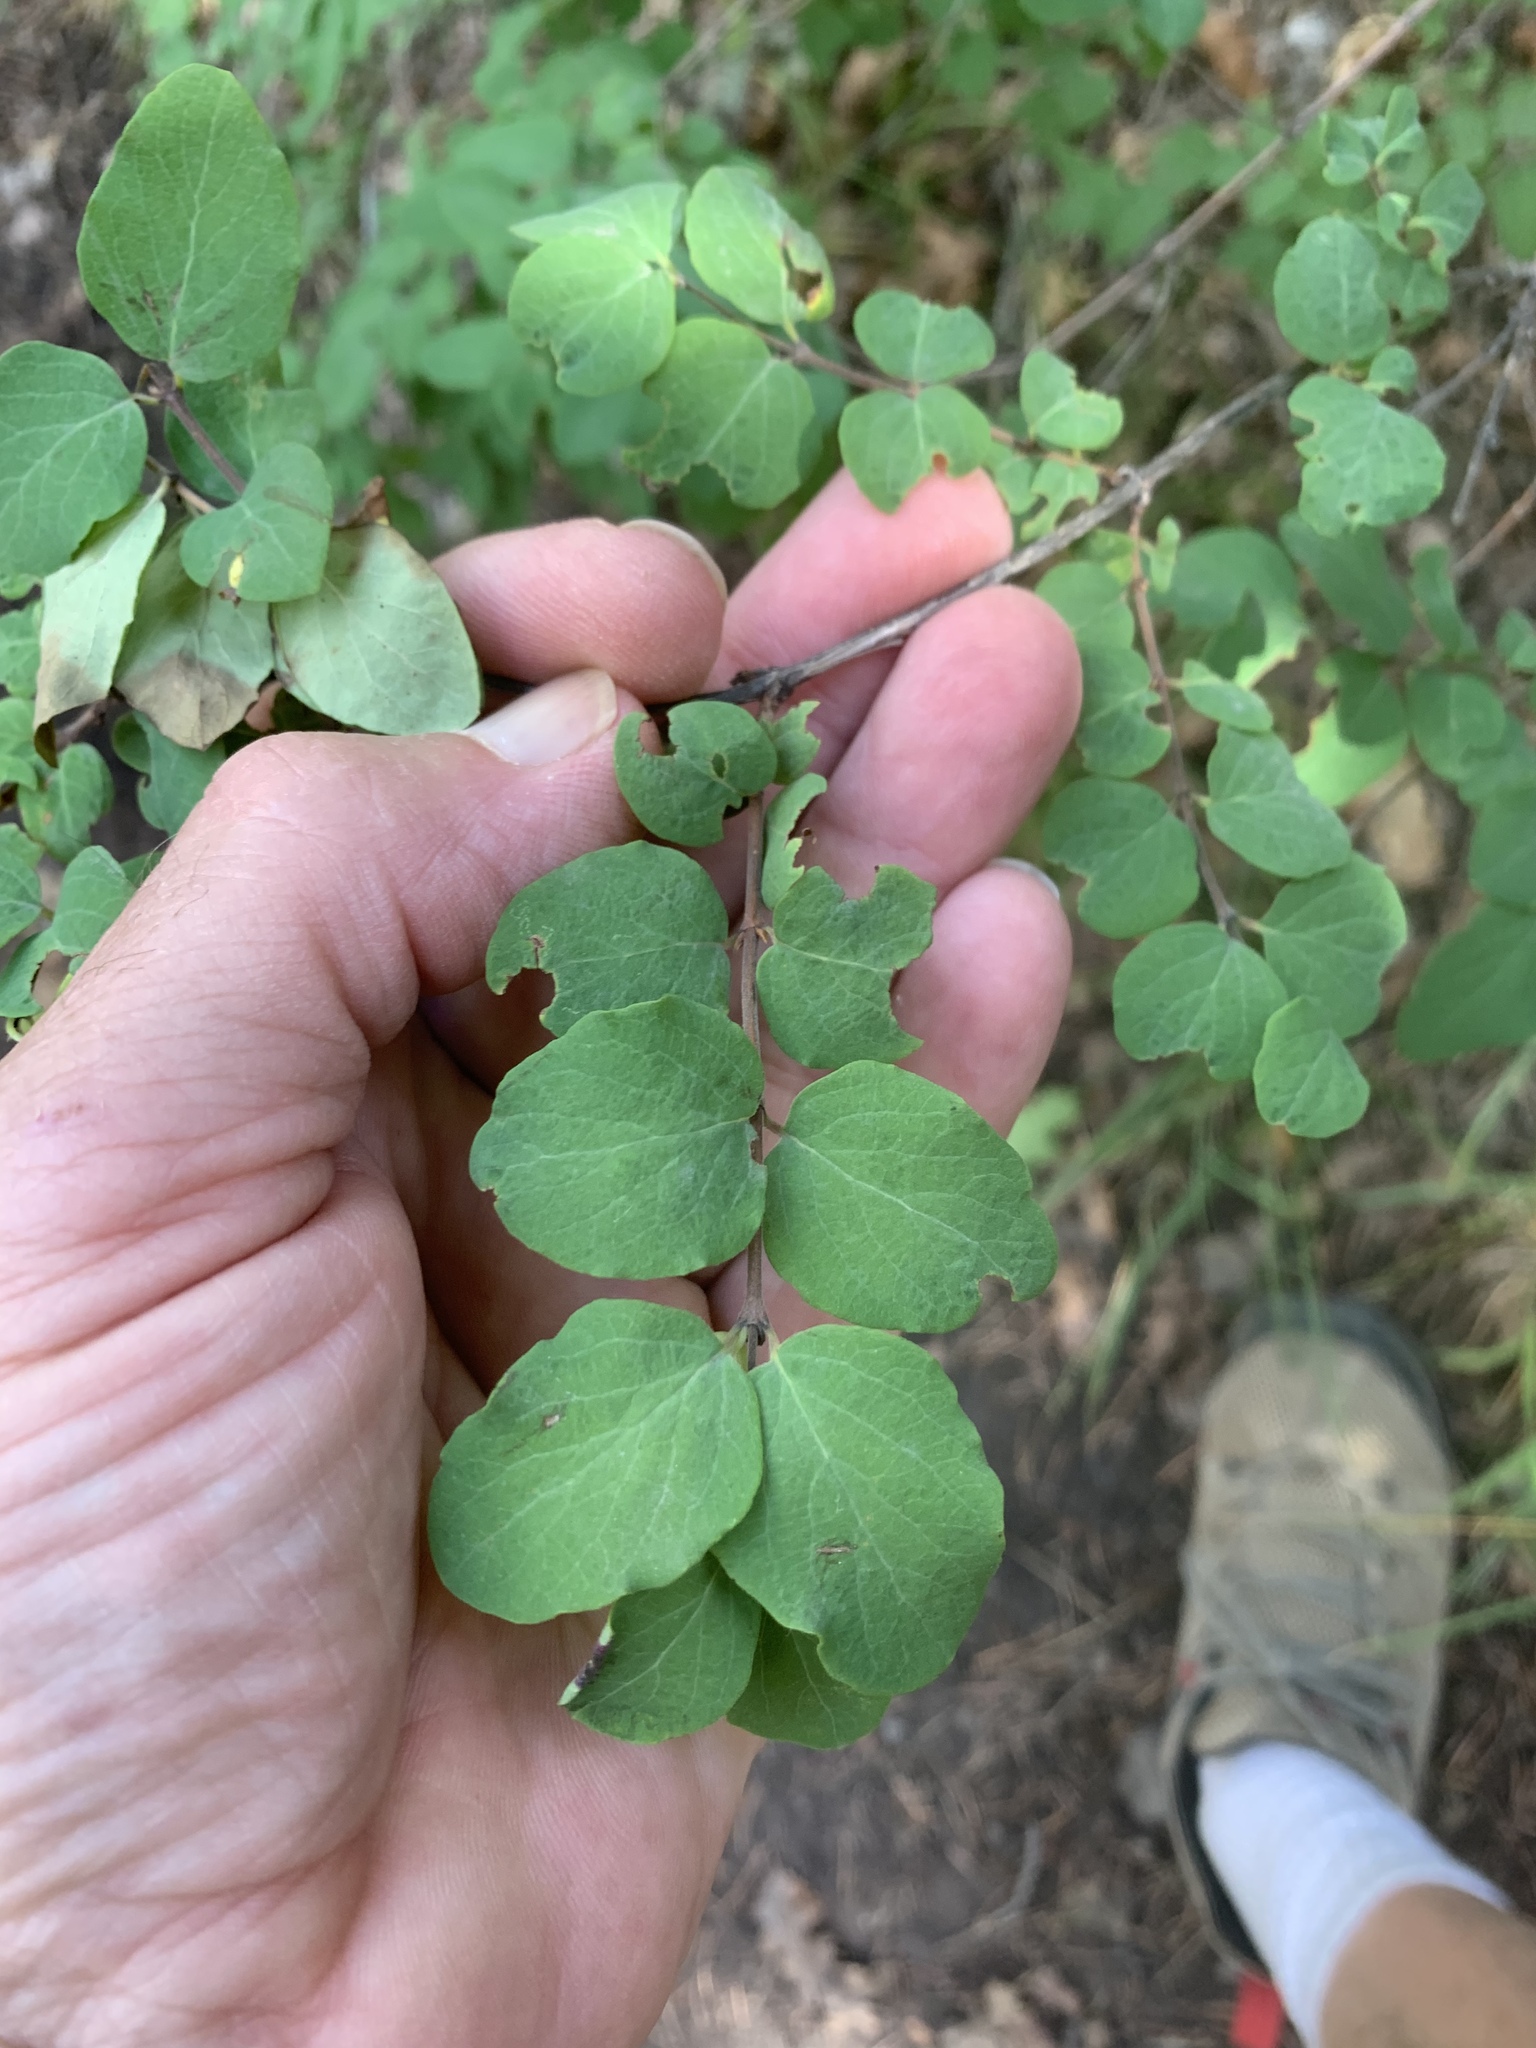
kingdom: Plantae
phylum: Tracheophyta
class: Magnoliopsida
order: Dipsacales
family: Caprifoliaceae
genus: Symphoricarpos
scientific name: Symphoricarpos rotundifolius
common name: Round-leaved snowberry
